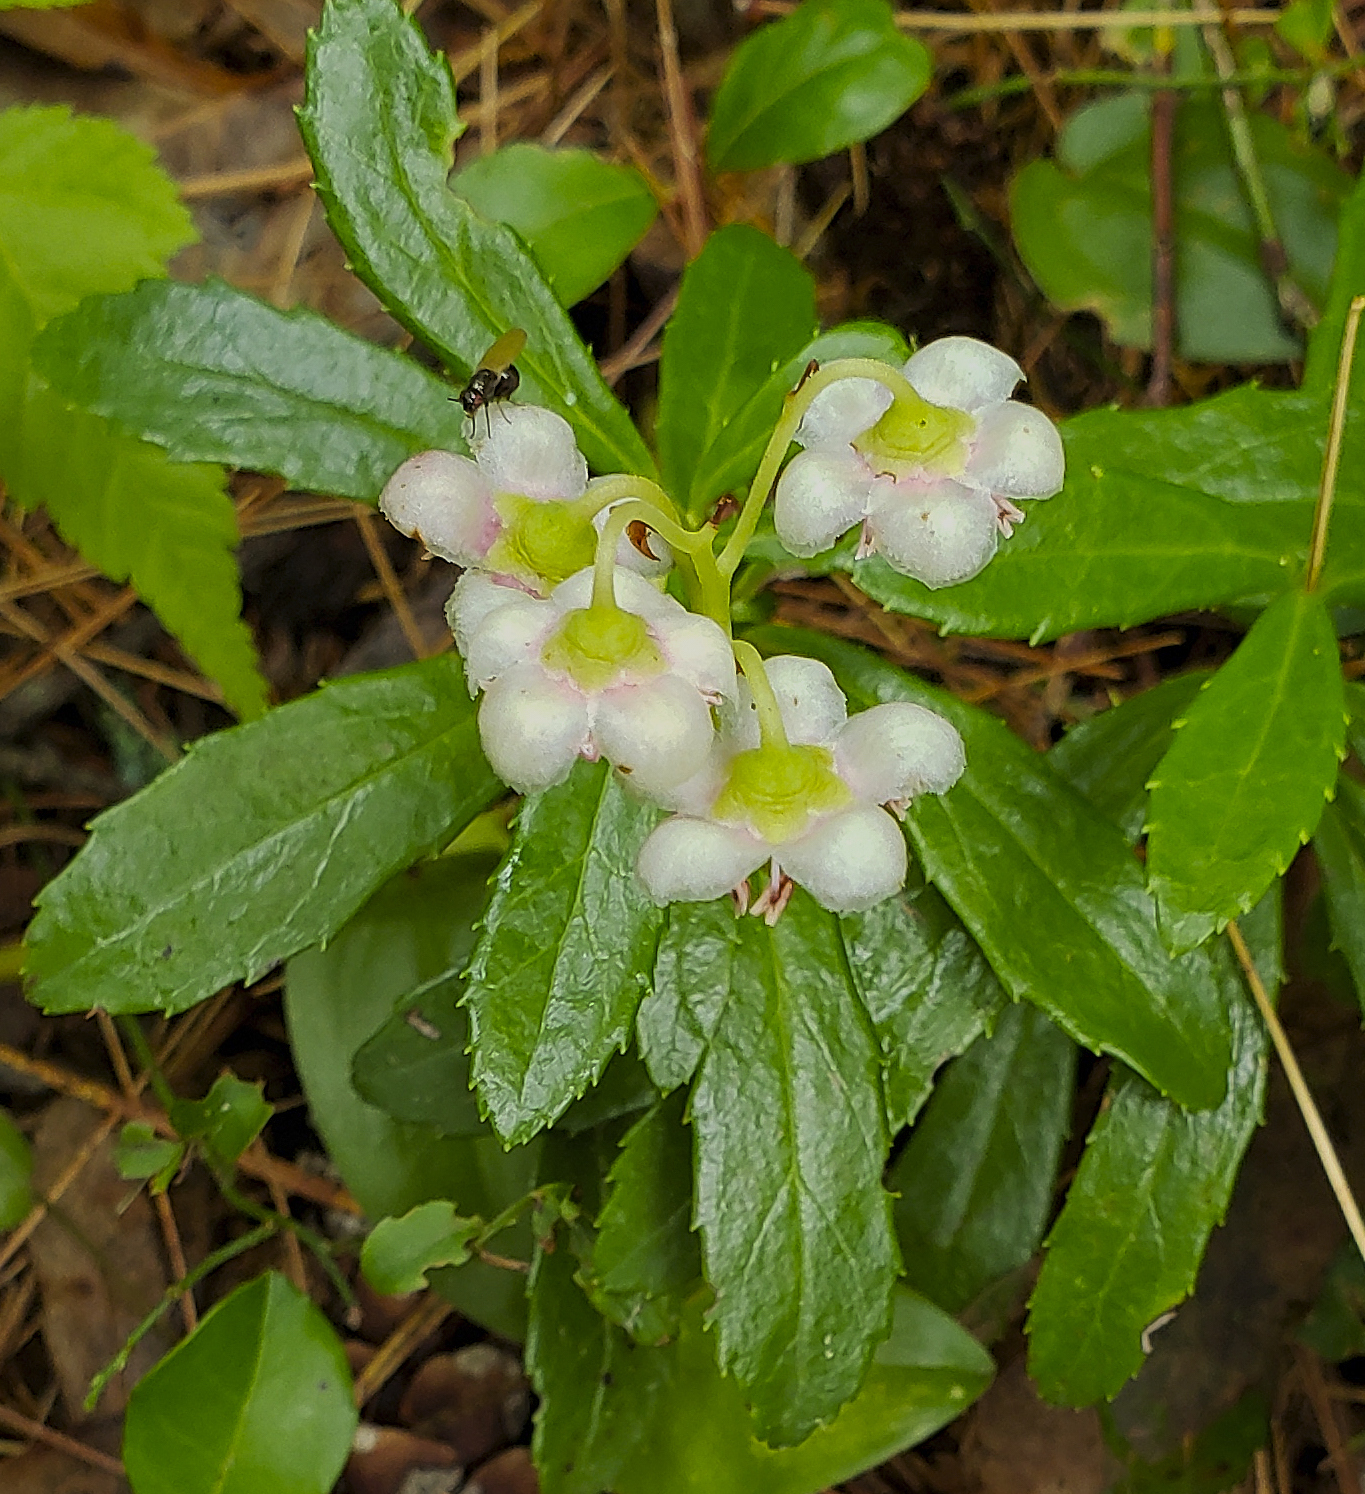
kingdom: Plantae
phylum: Tracheophyta
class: Magnoliopsida
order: Ericales
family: Ericaceae
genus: Chimaphila
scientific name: Chimaphila umbellata
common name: Pipsissewa
